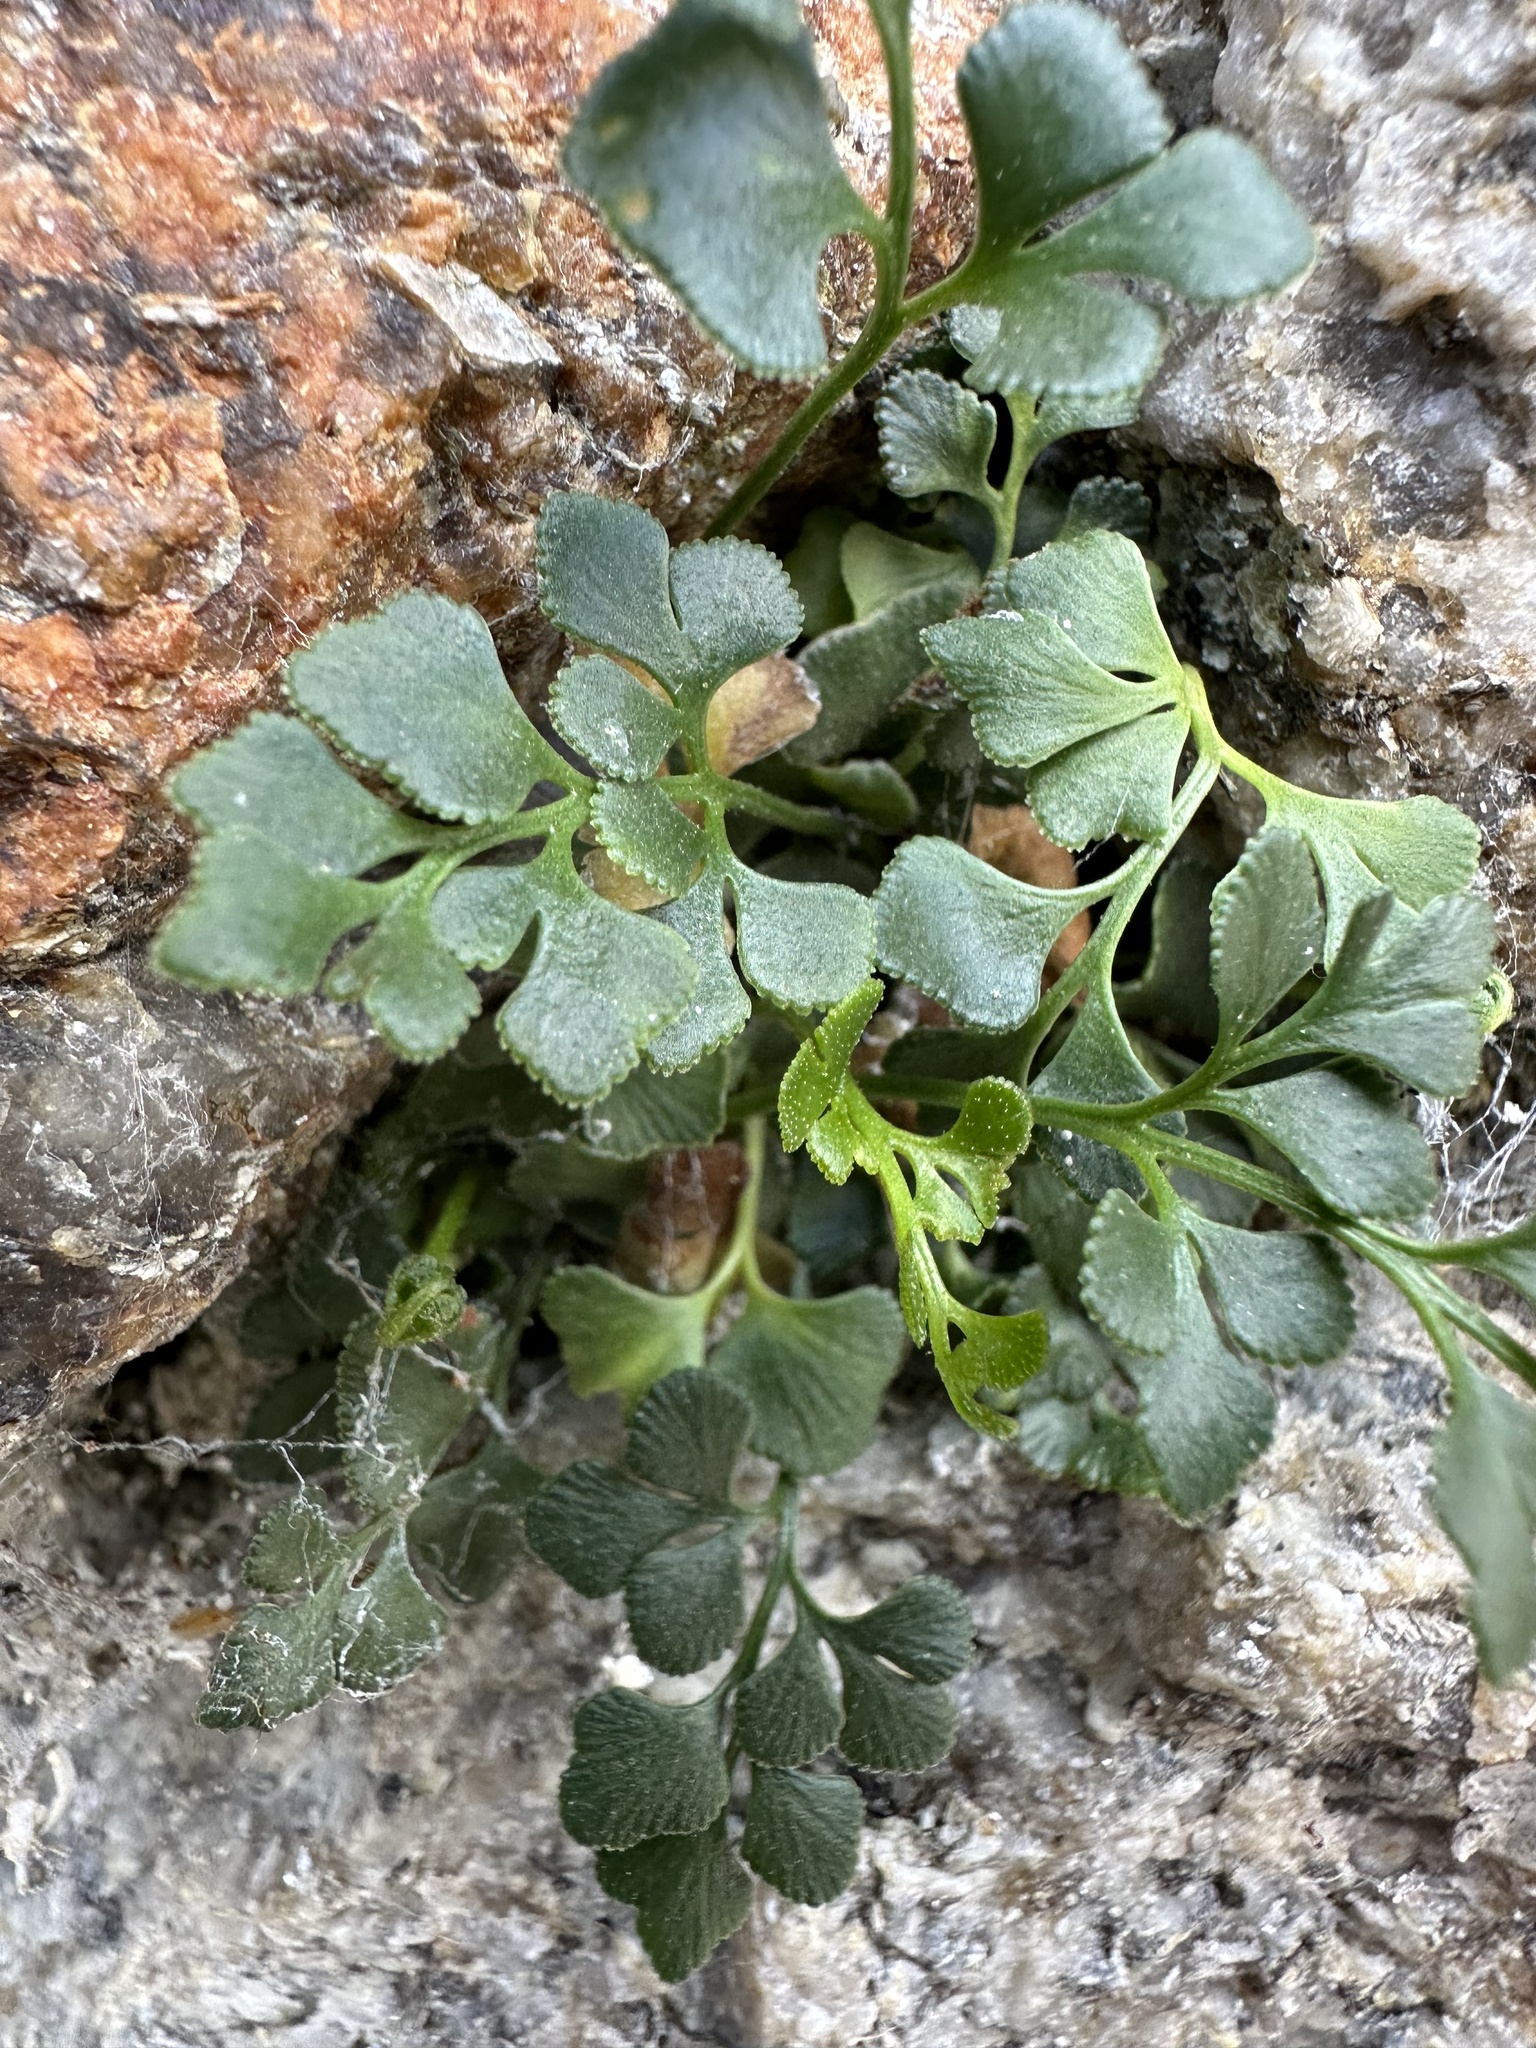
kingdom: Plantae
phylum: Tracheophyta
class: Polypodiopsida
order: Polypodiales
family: Aspleniaceae
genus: Asplenium
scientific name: Asplenium ruta-muraria
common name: Wall-rue
